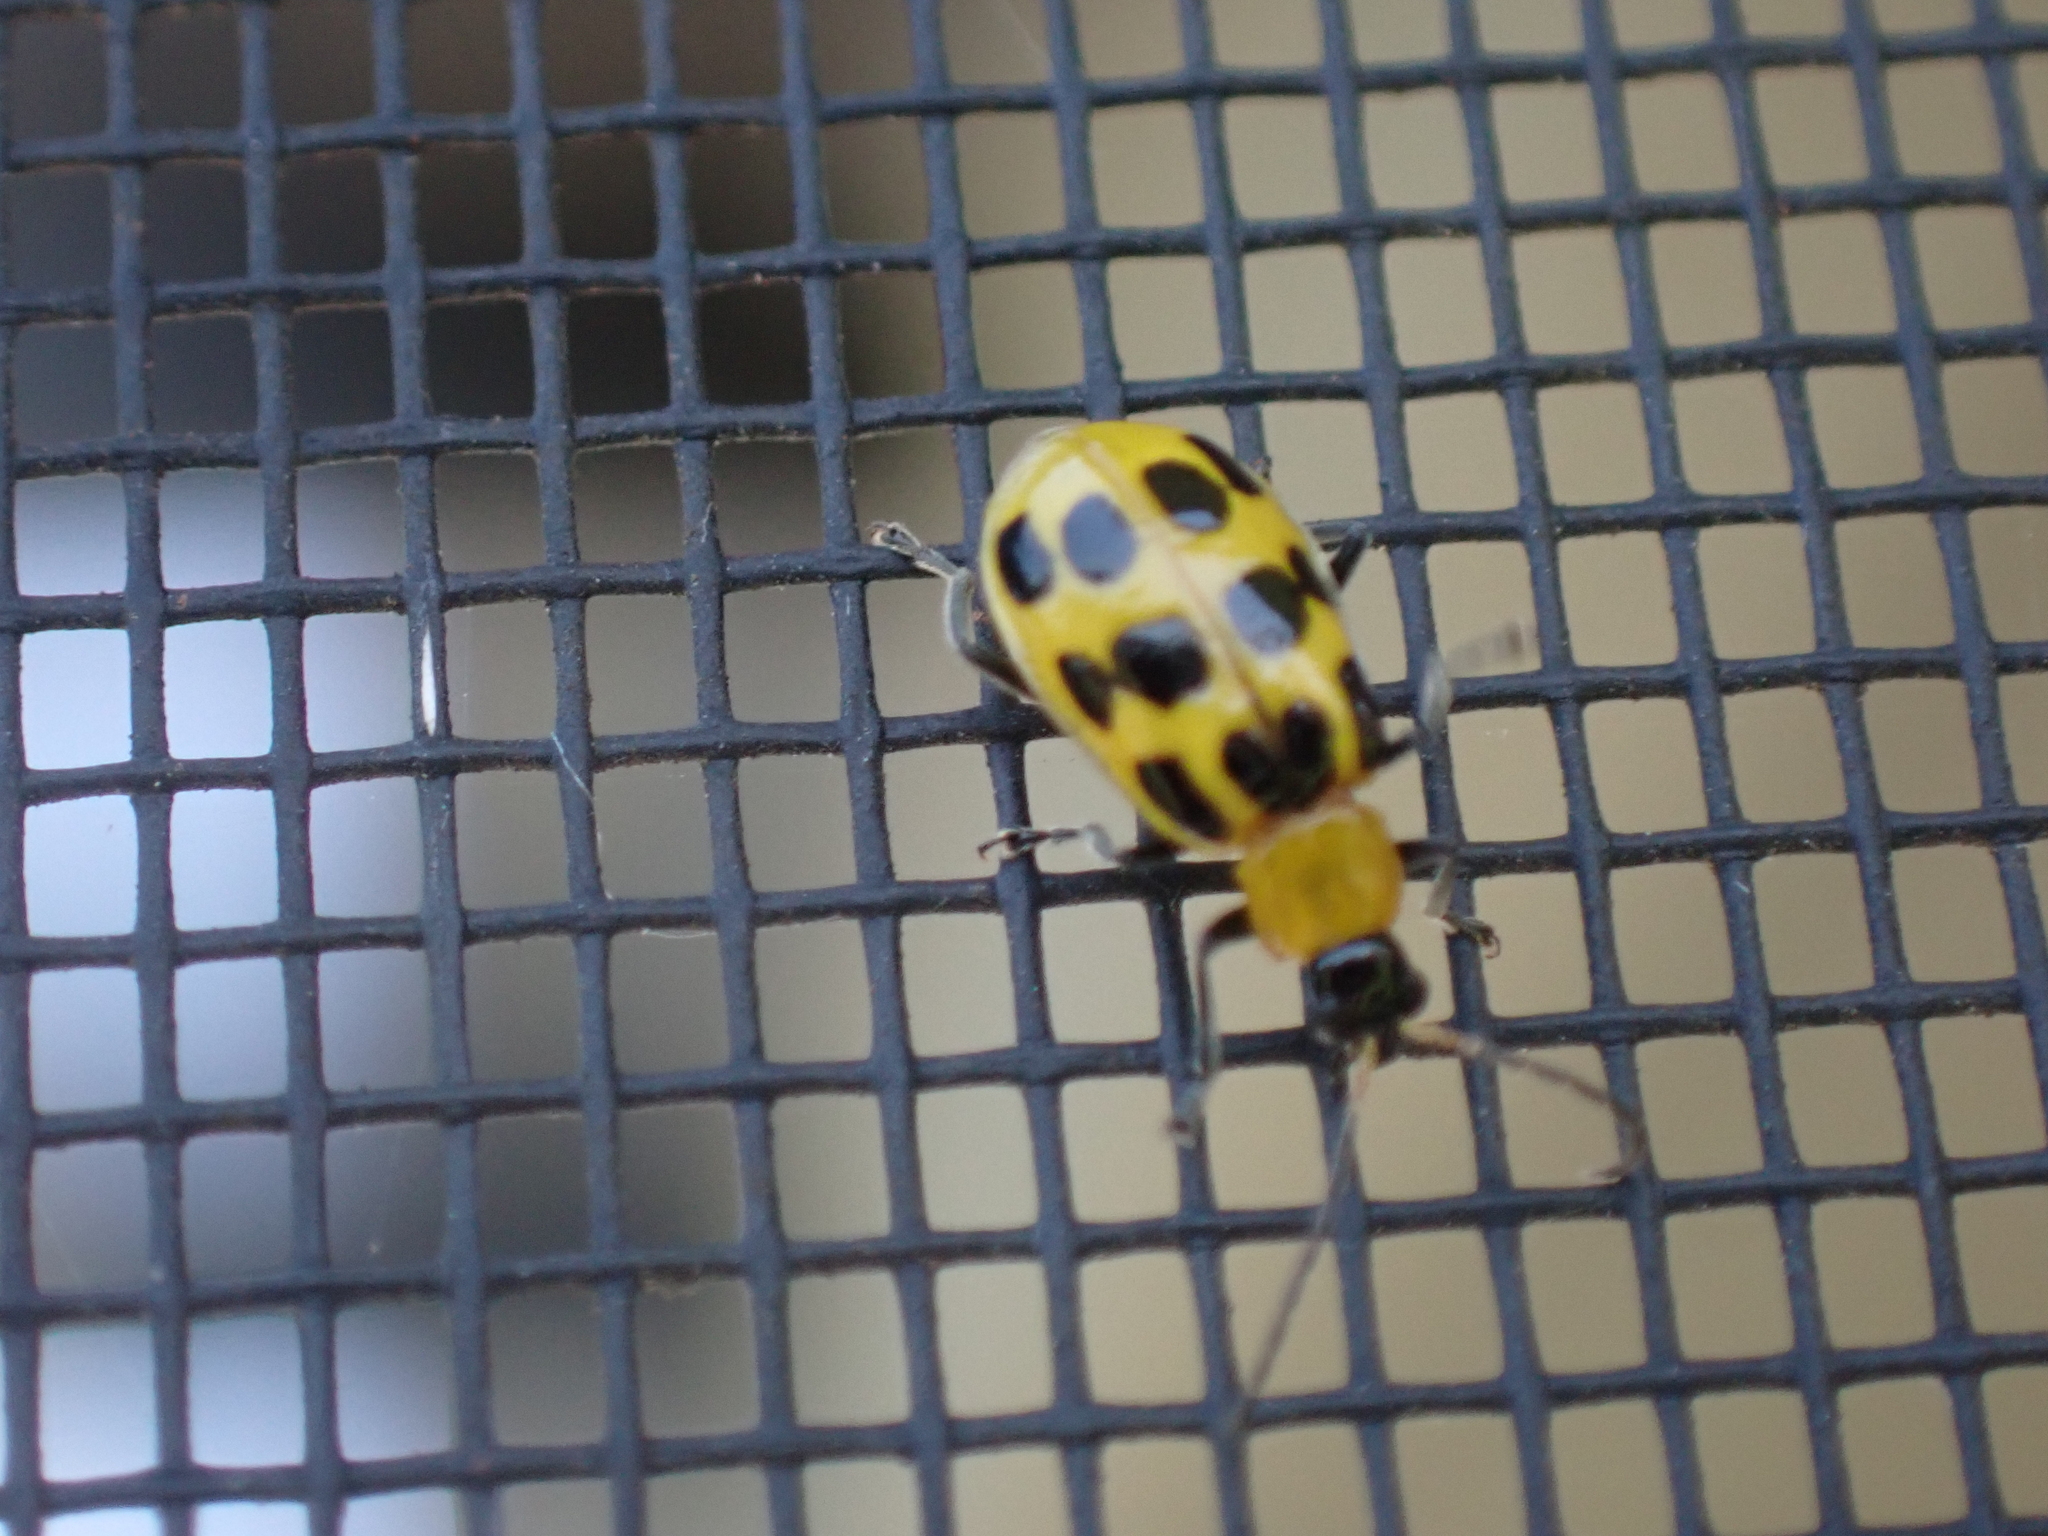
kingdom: Animalia
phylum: Arthropoda
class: Insecta
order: Coleoptera
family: Chrysomelidae
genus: Diabrotica
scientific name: Diabrotica undecimpunctata
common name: Spotted cucumber beetle
